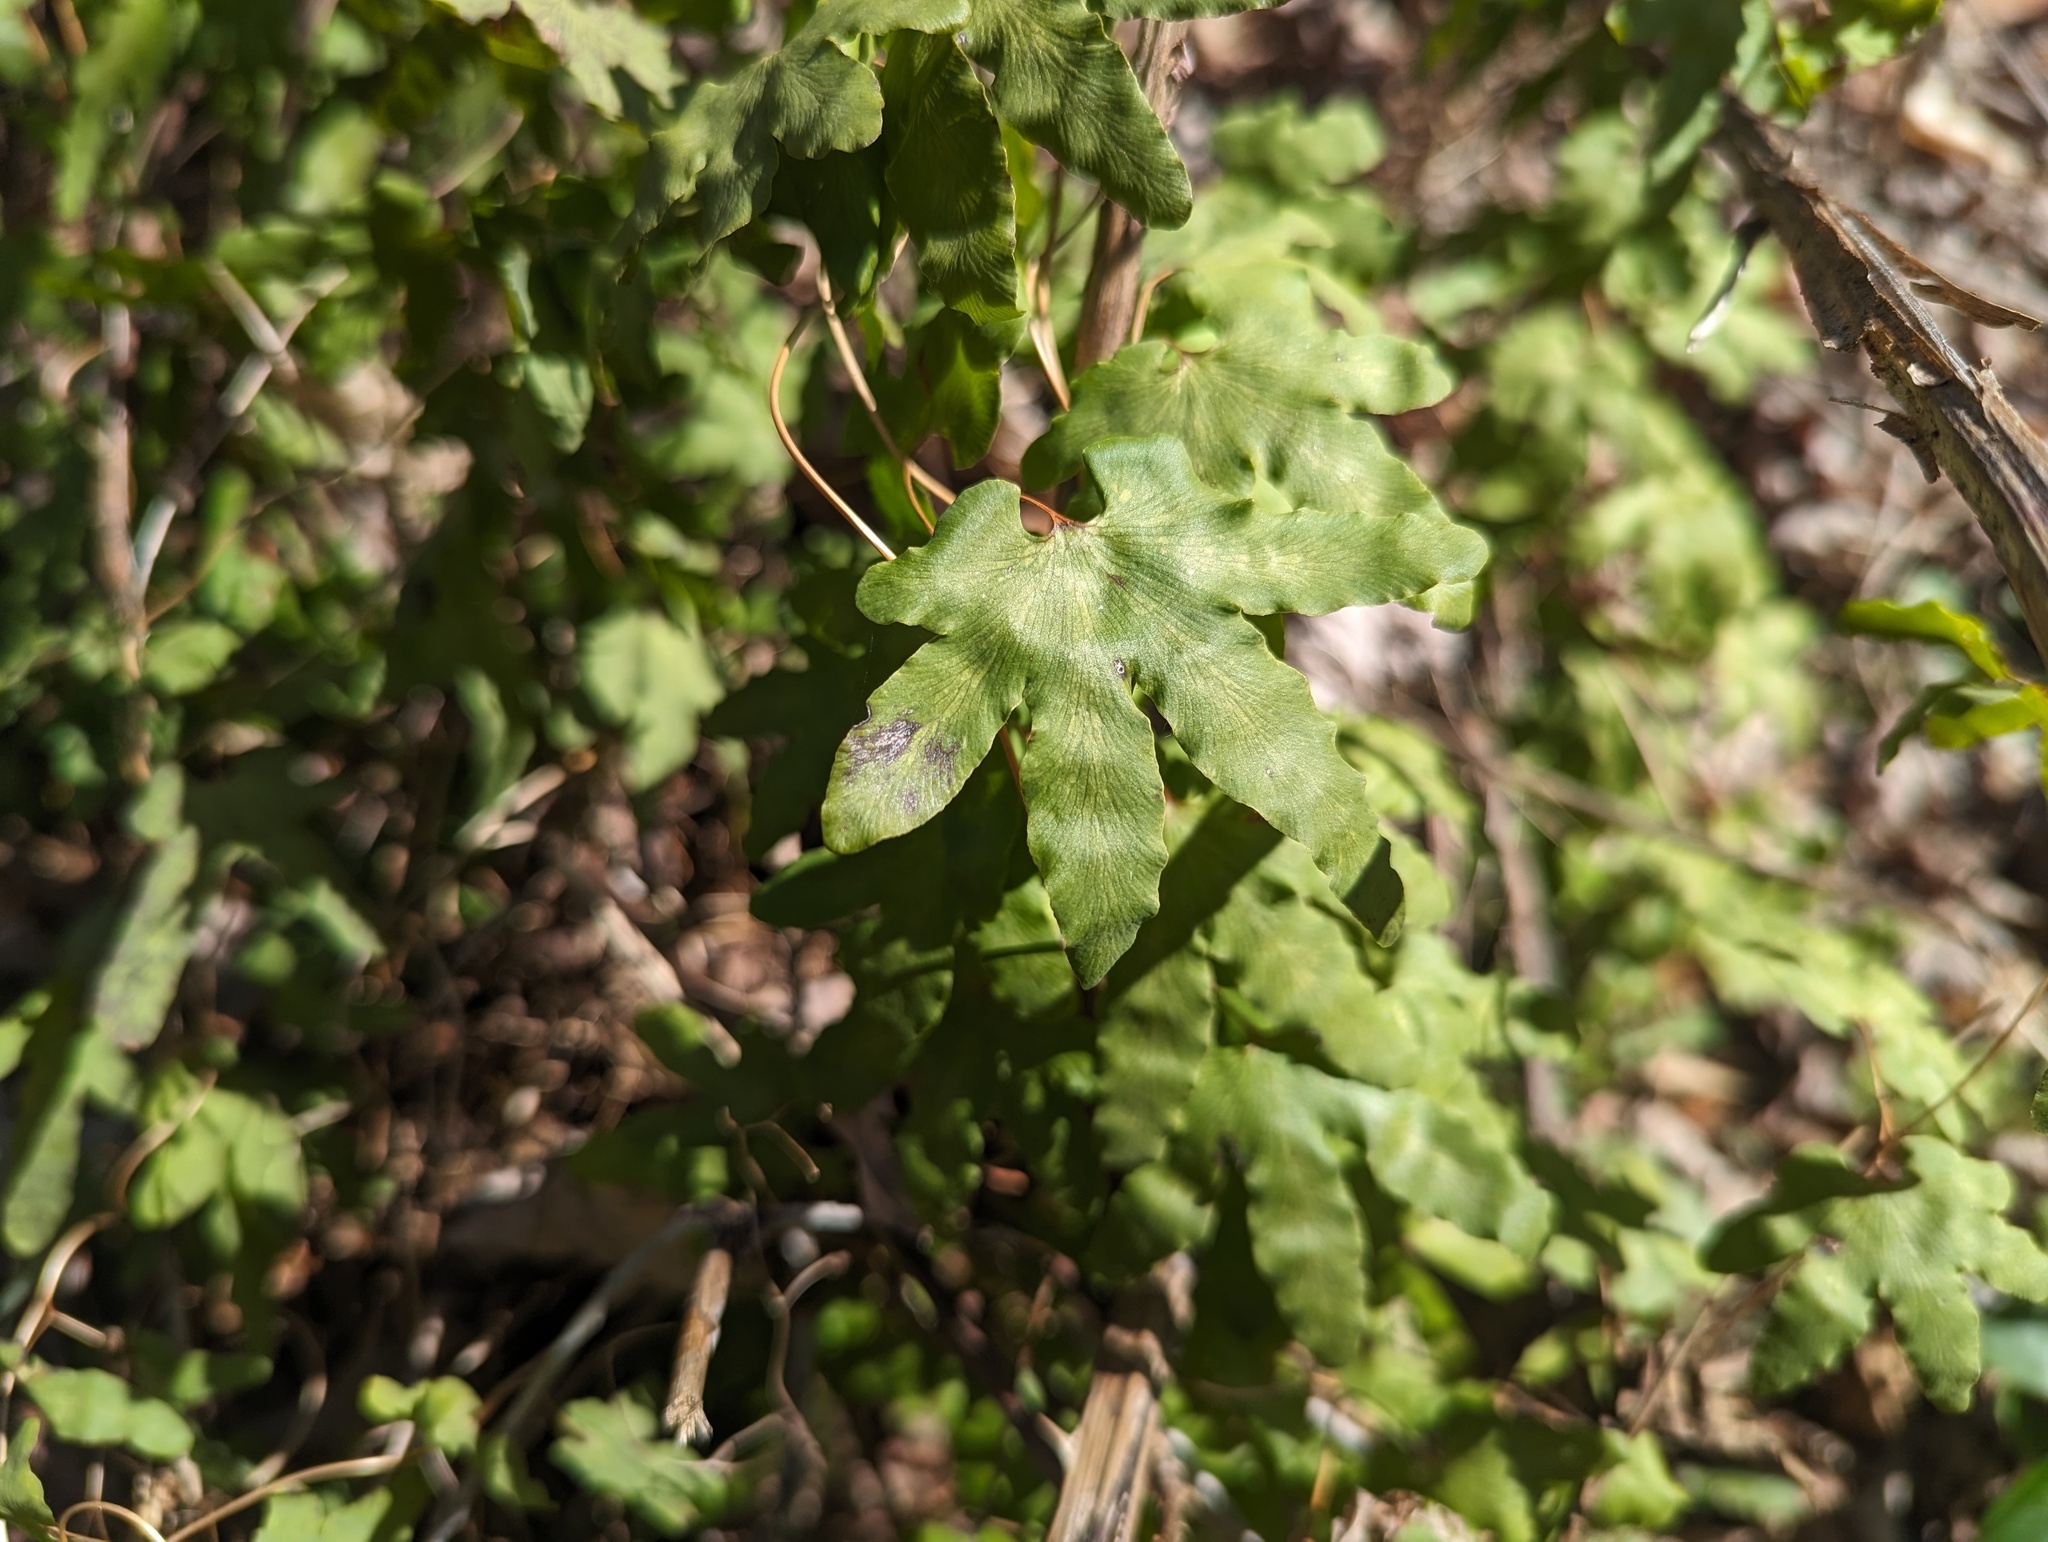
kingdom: Plantae
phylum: Tracheophyta
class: Polypodiopsida
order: Schizaeales
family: Lygodiaceae
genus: Lygodium
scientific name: Lygodium palmatum
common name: American climbing fern
